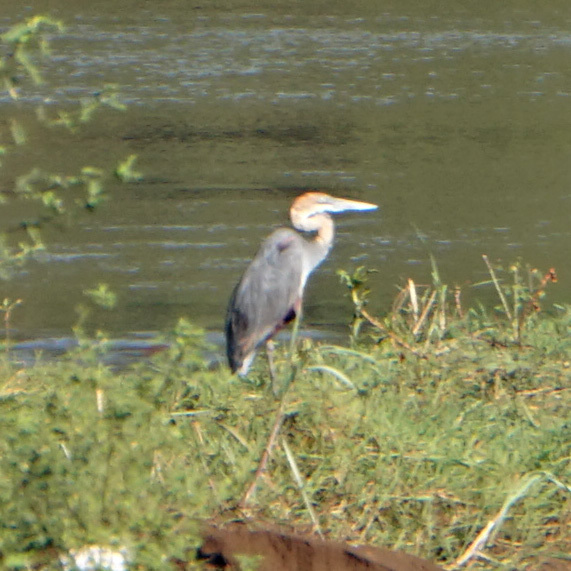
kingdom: Animalia
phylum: Chordata
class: Aves
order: Pelecaniformes
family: Ardeidae
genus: Ardea
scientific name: Ardea goliath
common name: Goliath heron
